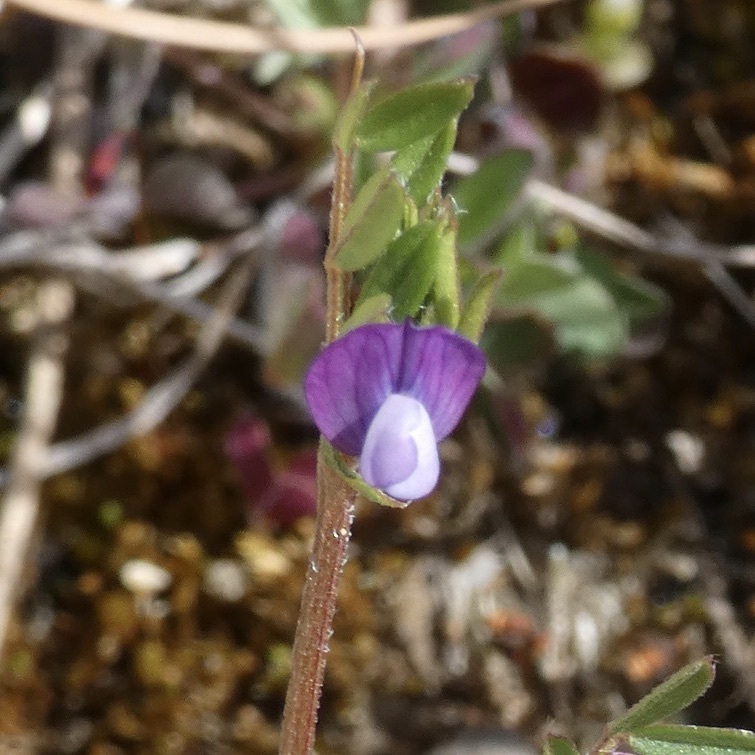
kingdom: Plantae
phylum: Tracheophyta
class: Magnoliopsida
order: Fabales
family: Fabaceae
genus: Vicia
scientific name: Vicia lathyroides
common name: Spring vetch
